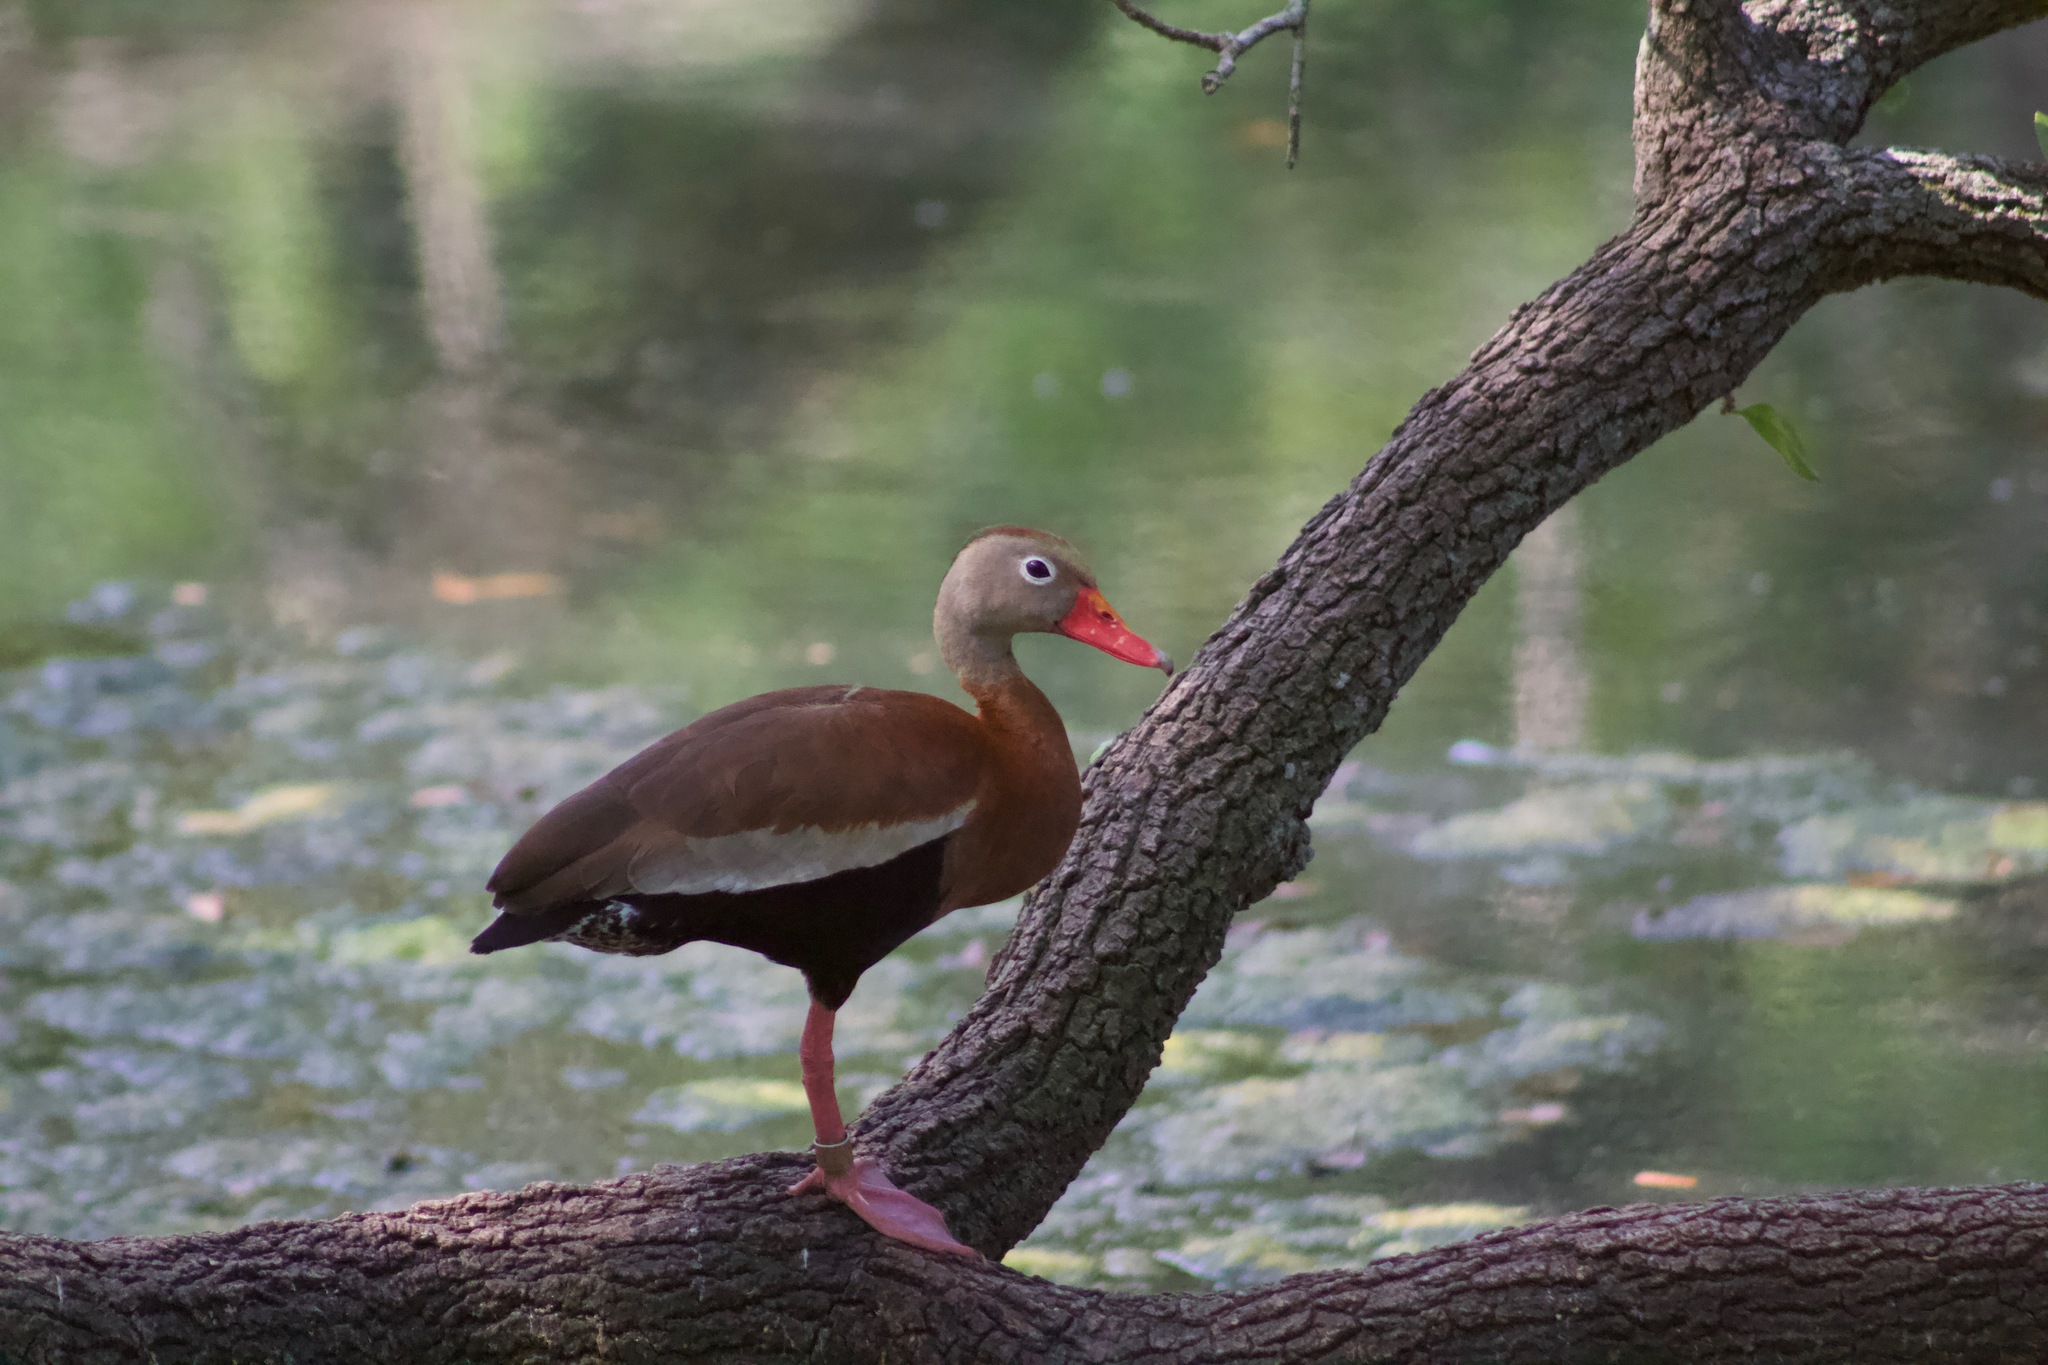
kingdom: Animalia
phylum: Chordata
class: Aves
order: Anseriformes
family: Anatidae
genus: Dendrocygna
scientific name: Dendrocygna autumnalis
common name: Black-bellied whistling duck
